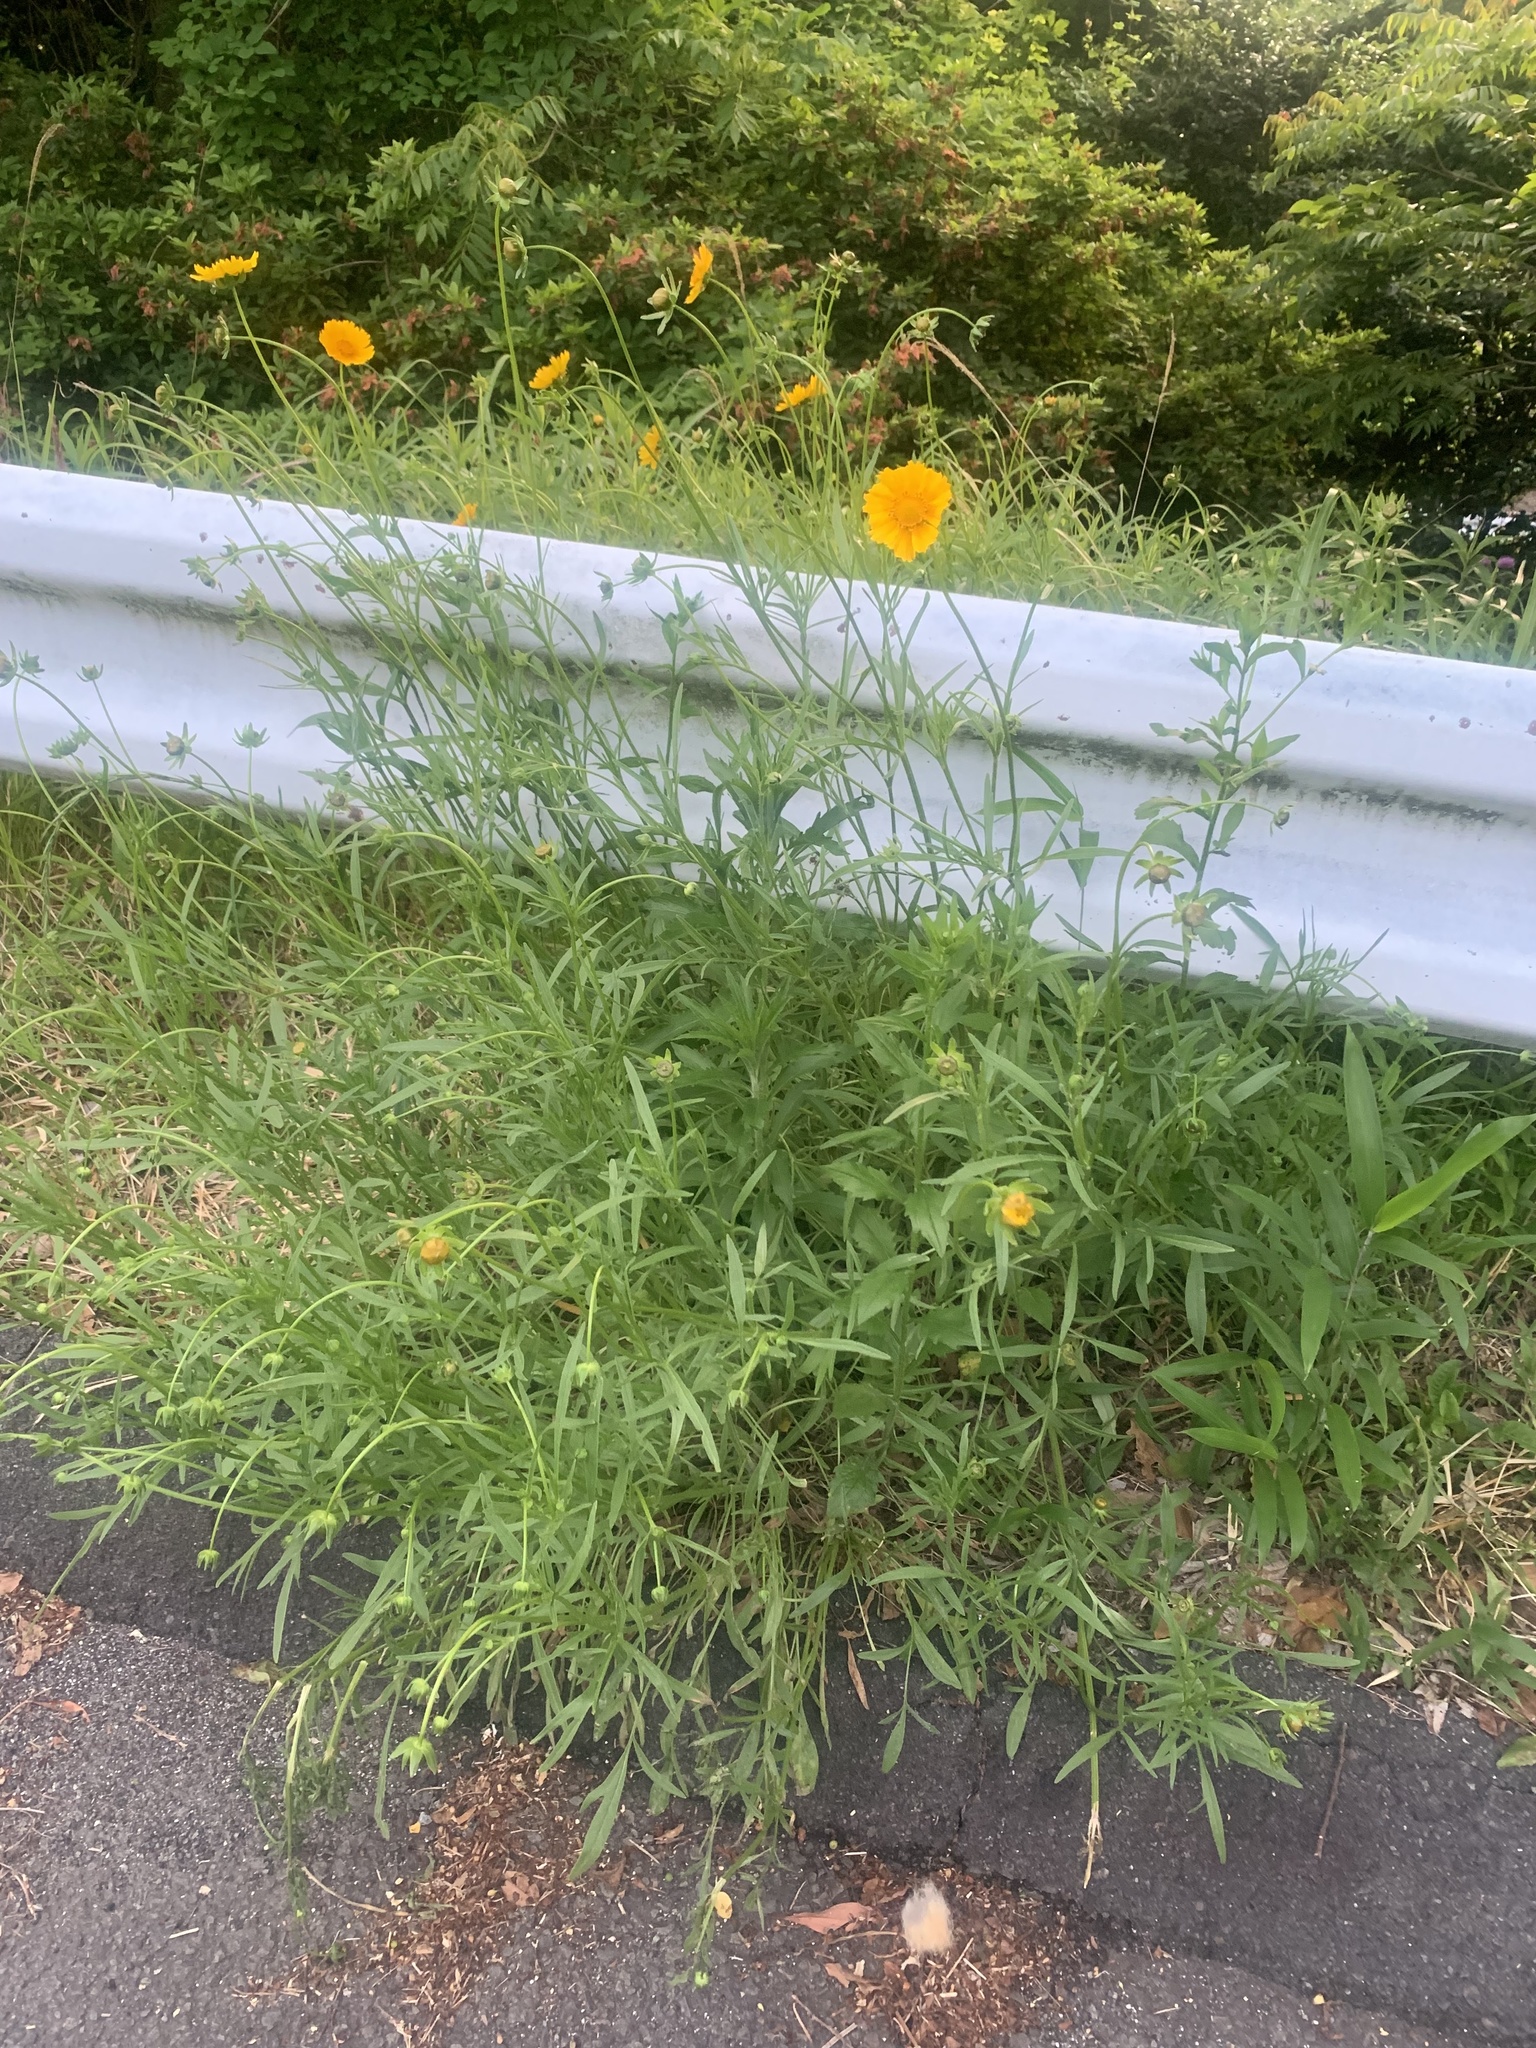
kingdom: Plantae
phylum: Tracheophyta
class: Magnoliopsida
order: Asterales
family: Asteraceae
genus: Coreopsis
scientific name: Coreopsis lanceolata
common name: Garden coreopsis
